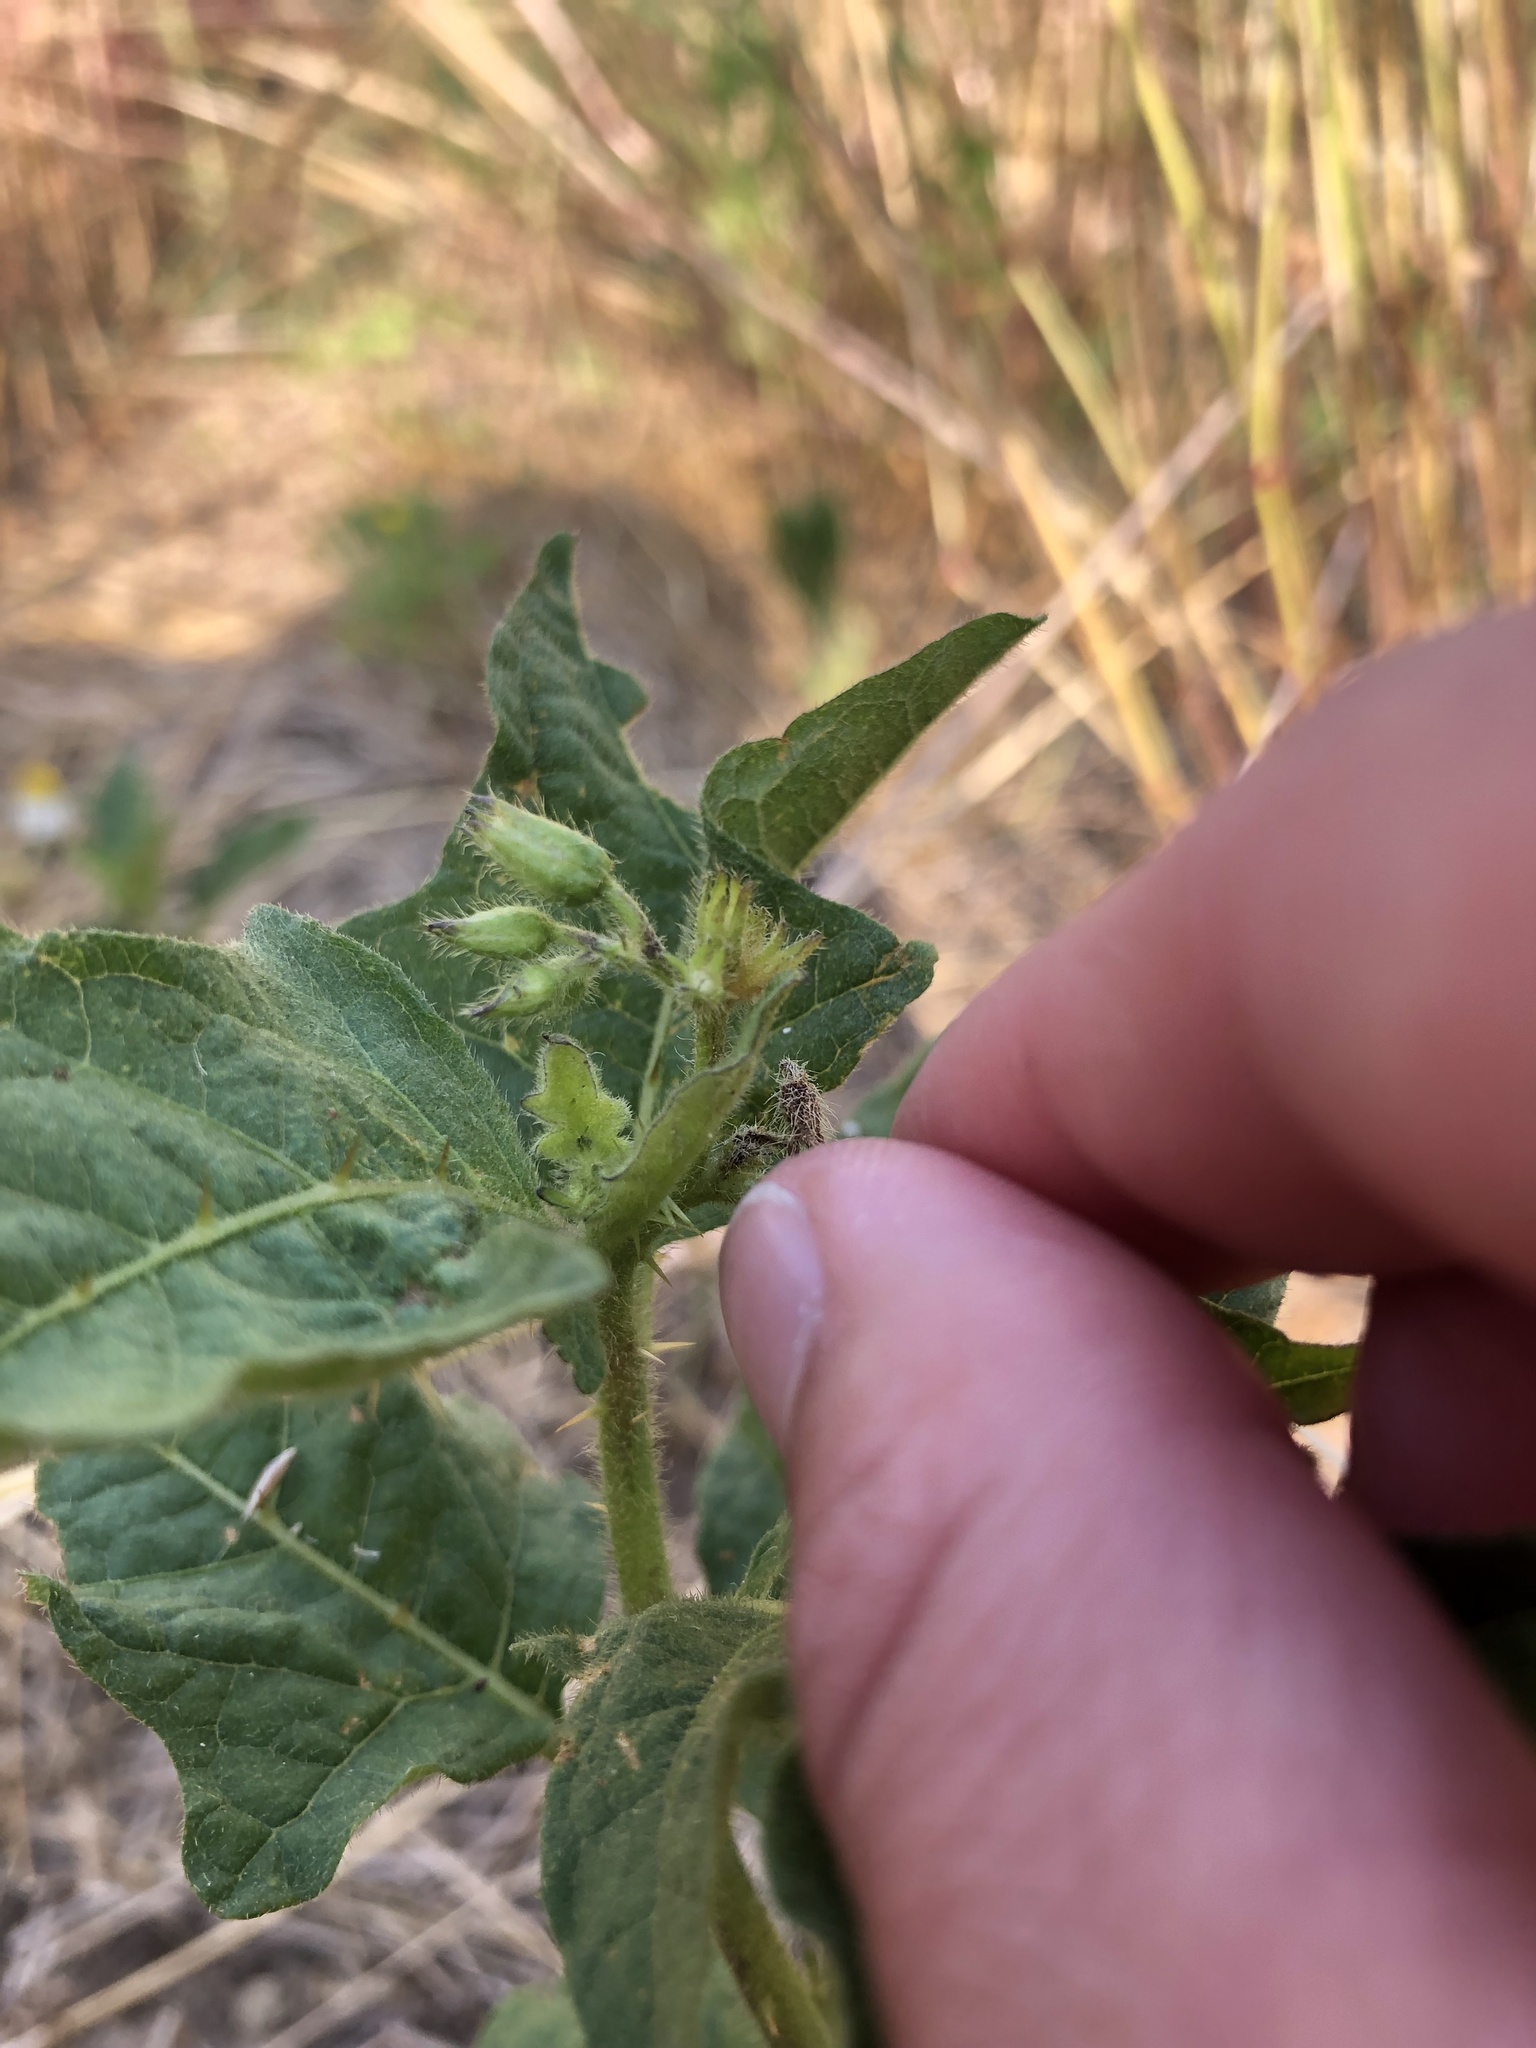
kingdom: Plantae
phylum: Tracheophyta
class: Magnoliopsida
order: Solanales
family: Solanaceae
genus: Solanum
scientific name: Solanum carolinense
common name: Horse-nettle
